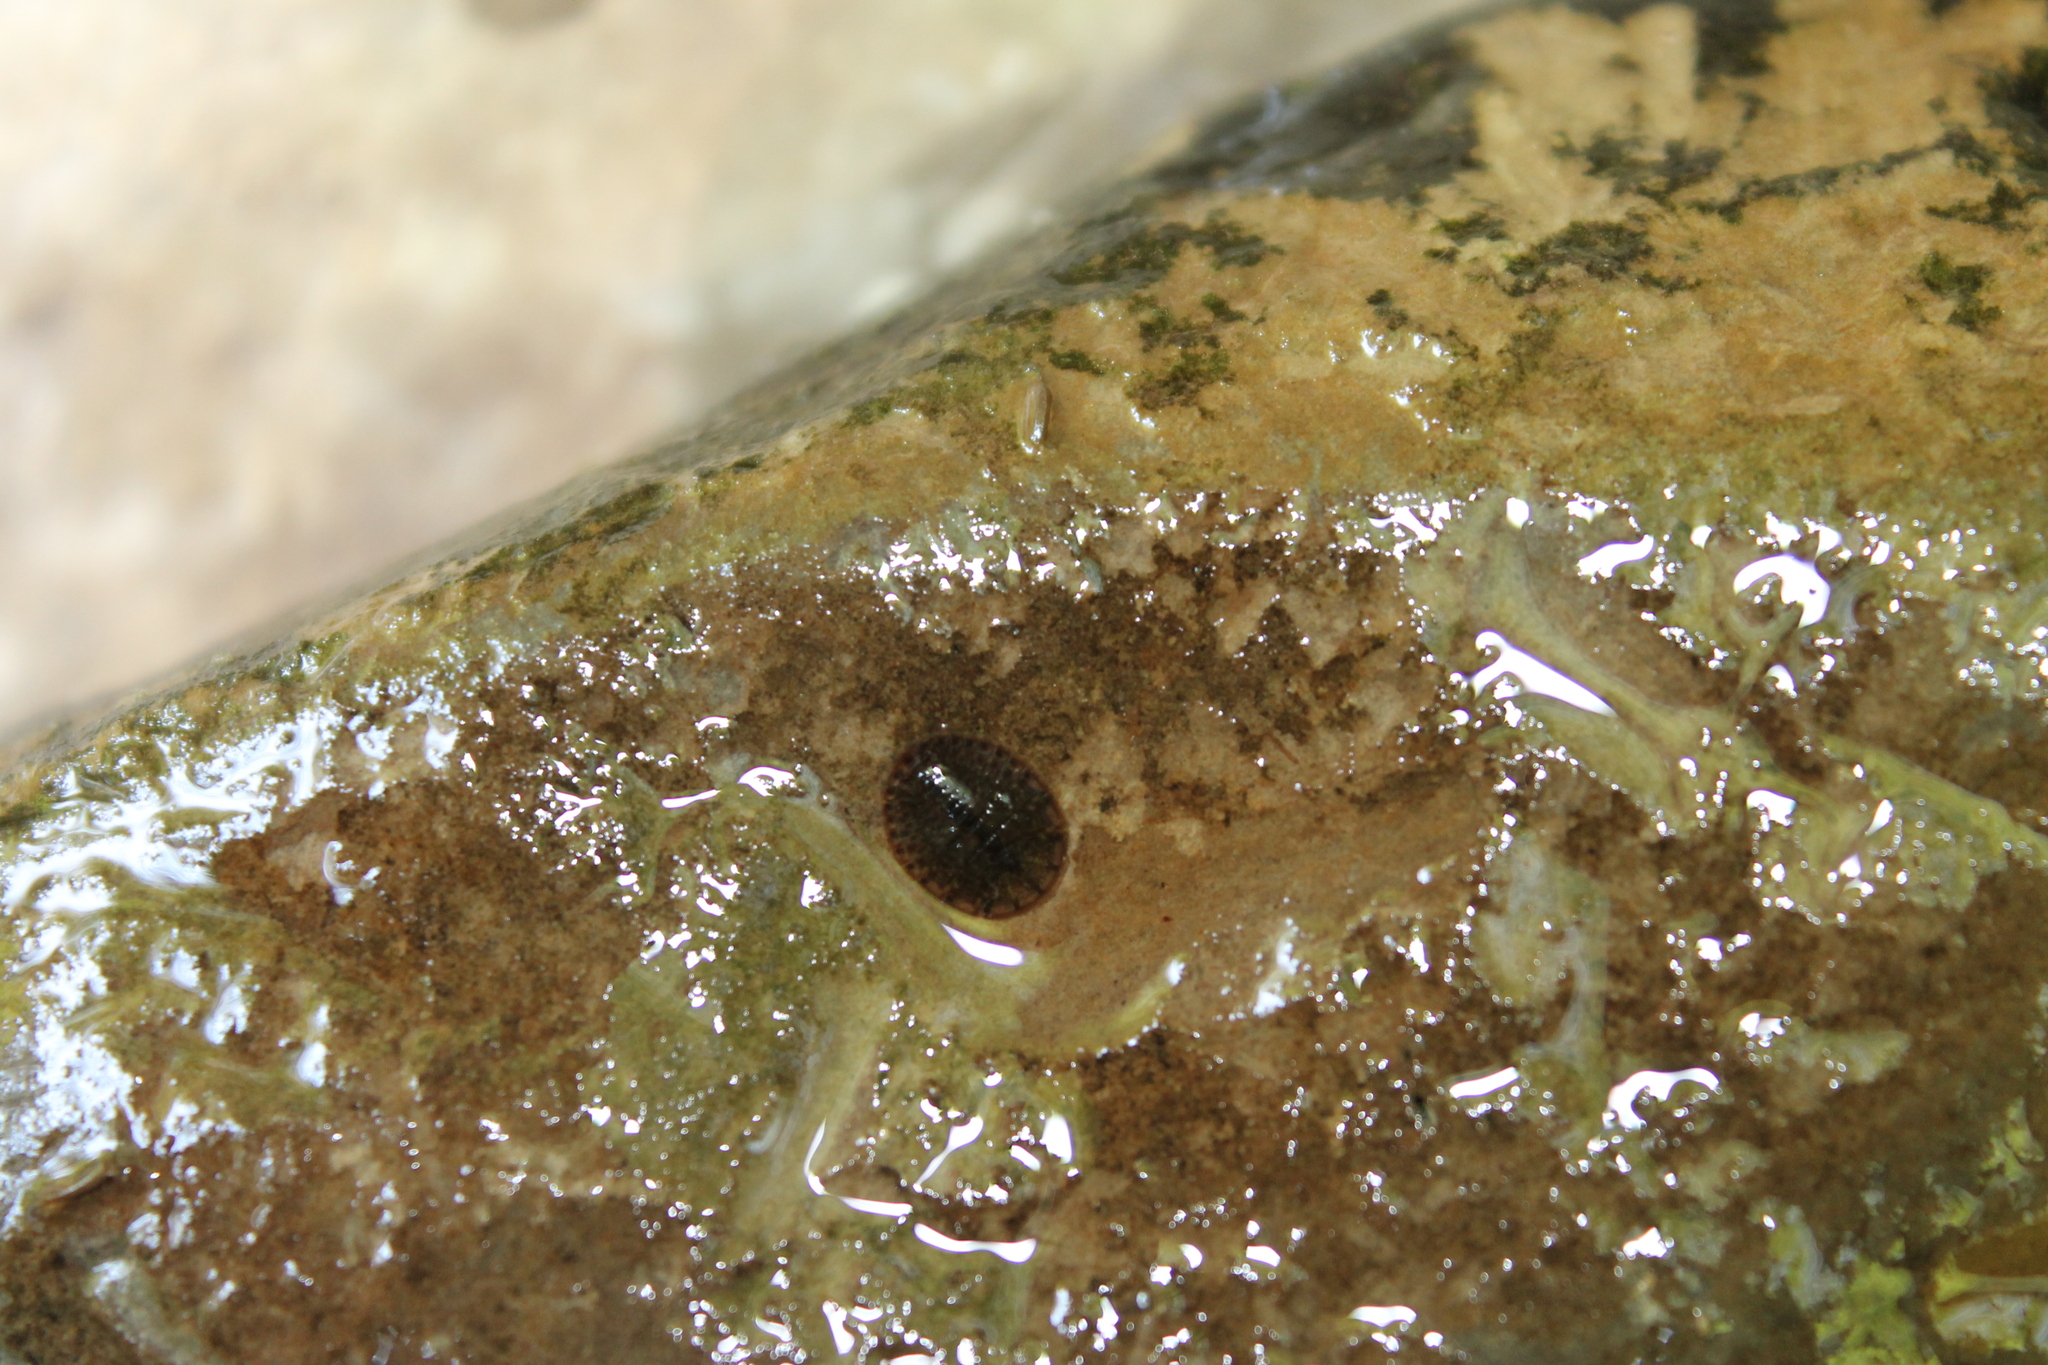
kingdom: Animalia
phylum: Arthropoda
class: Insecta
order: Coleoptera
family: Psephenidae
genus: Psephenus
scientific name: Psephenus herricki
